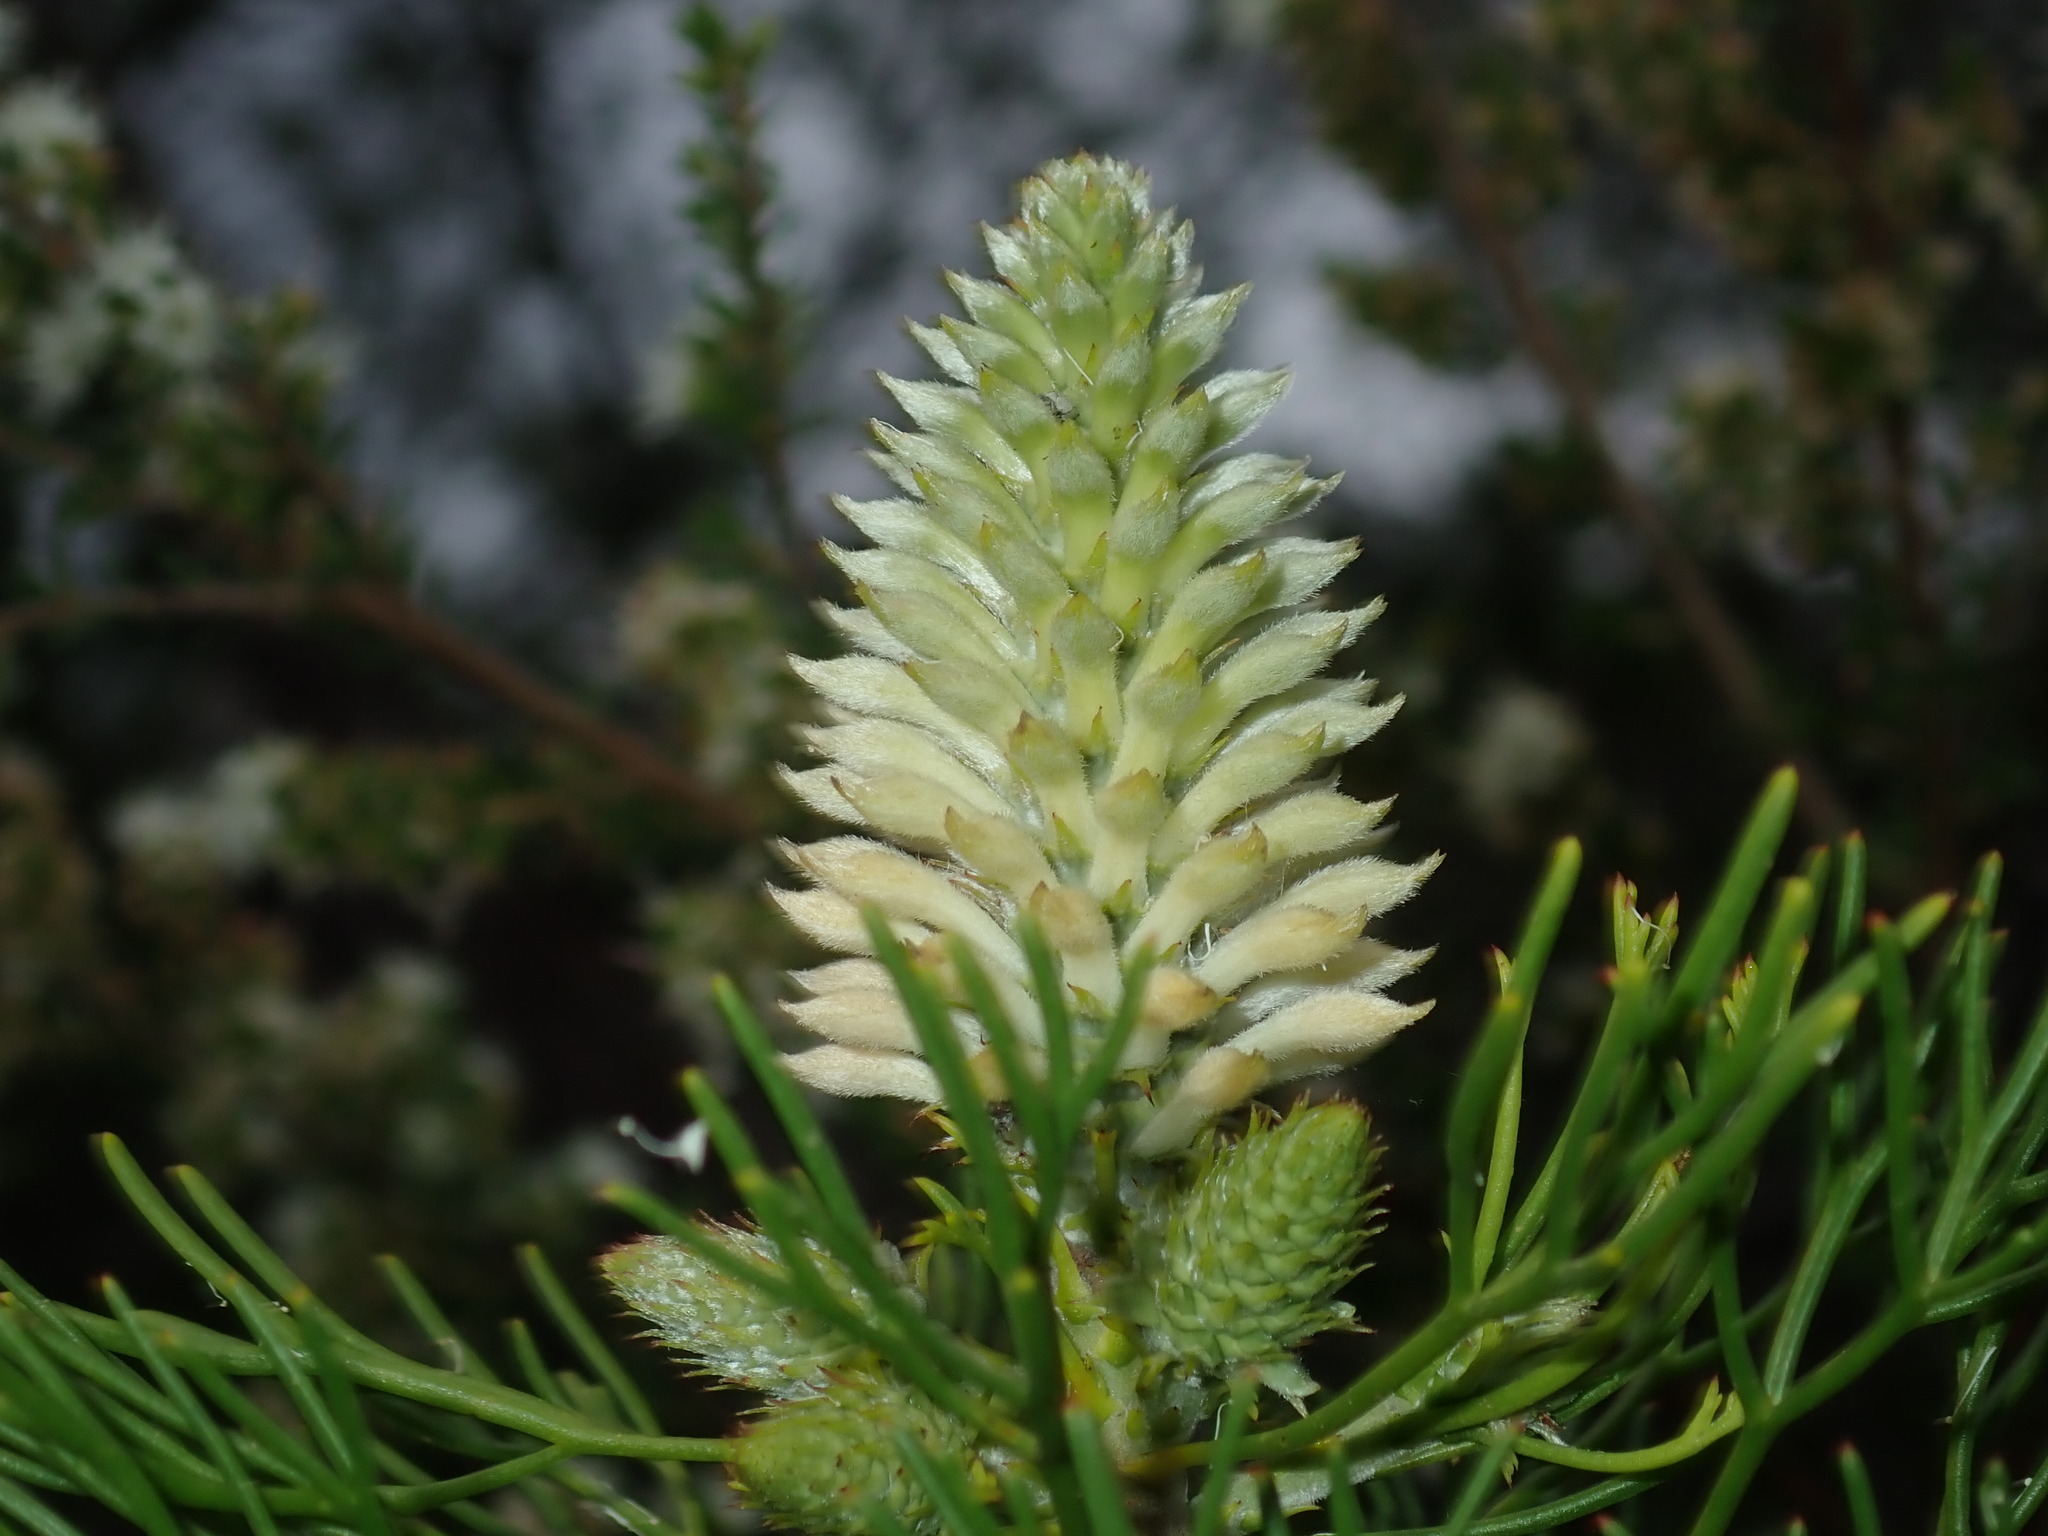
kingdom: Plantae
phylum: Tracheophyta
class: Magnoliopsida
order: Proteales
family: Proteaceae
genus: Petrophile
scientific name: Petrophile pulchella
